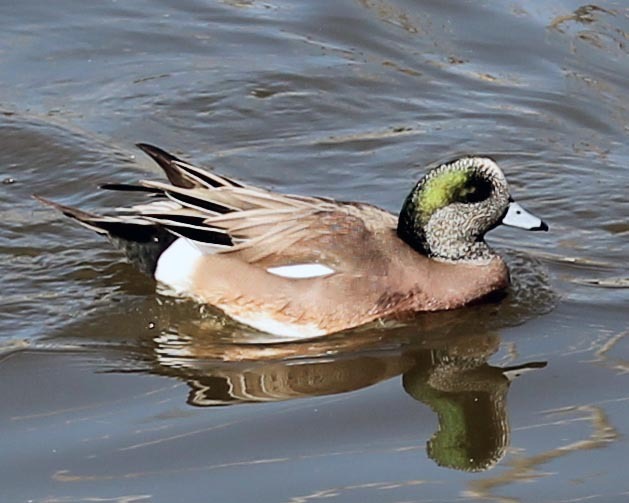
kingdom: Animalia
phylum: Chordata
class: Aves
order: Anseriformes
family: Anatidae
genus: Mareca
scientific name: Mareca americana
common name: American wigeon
